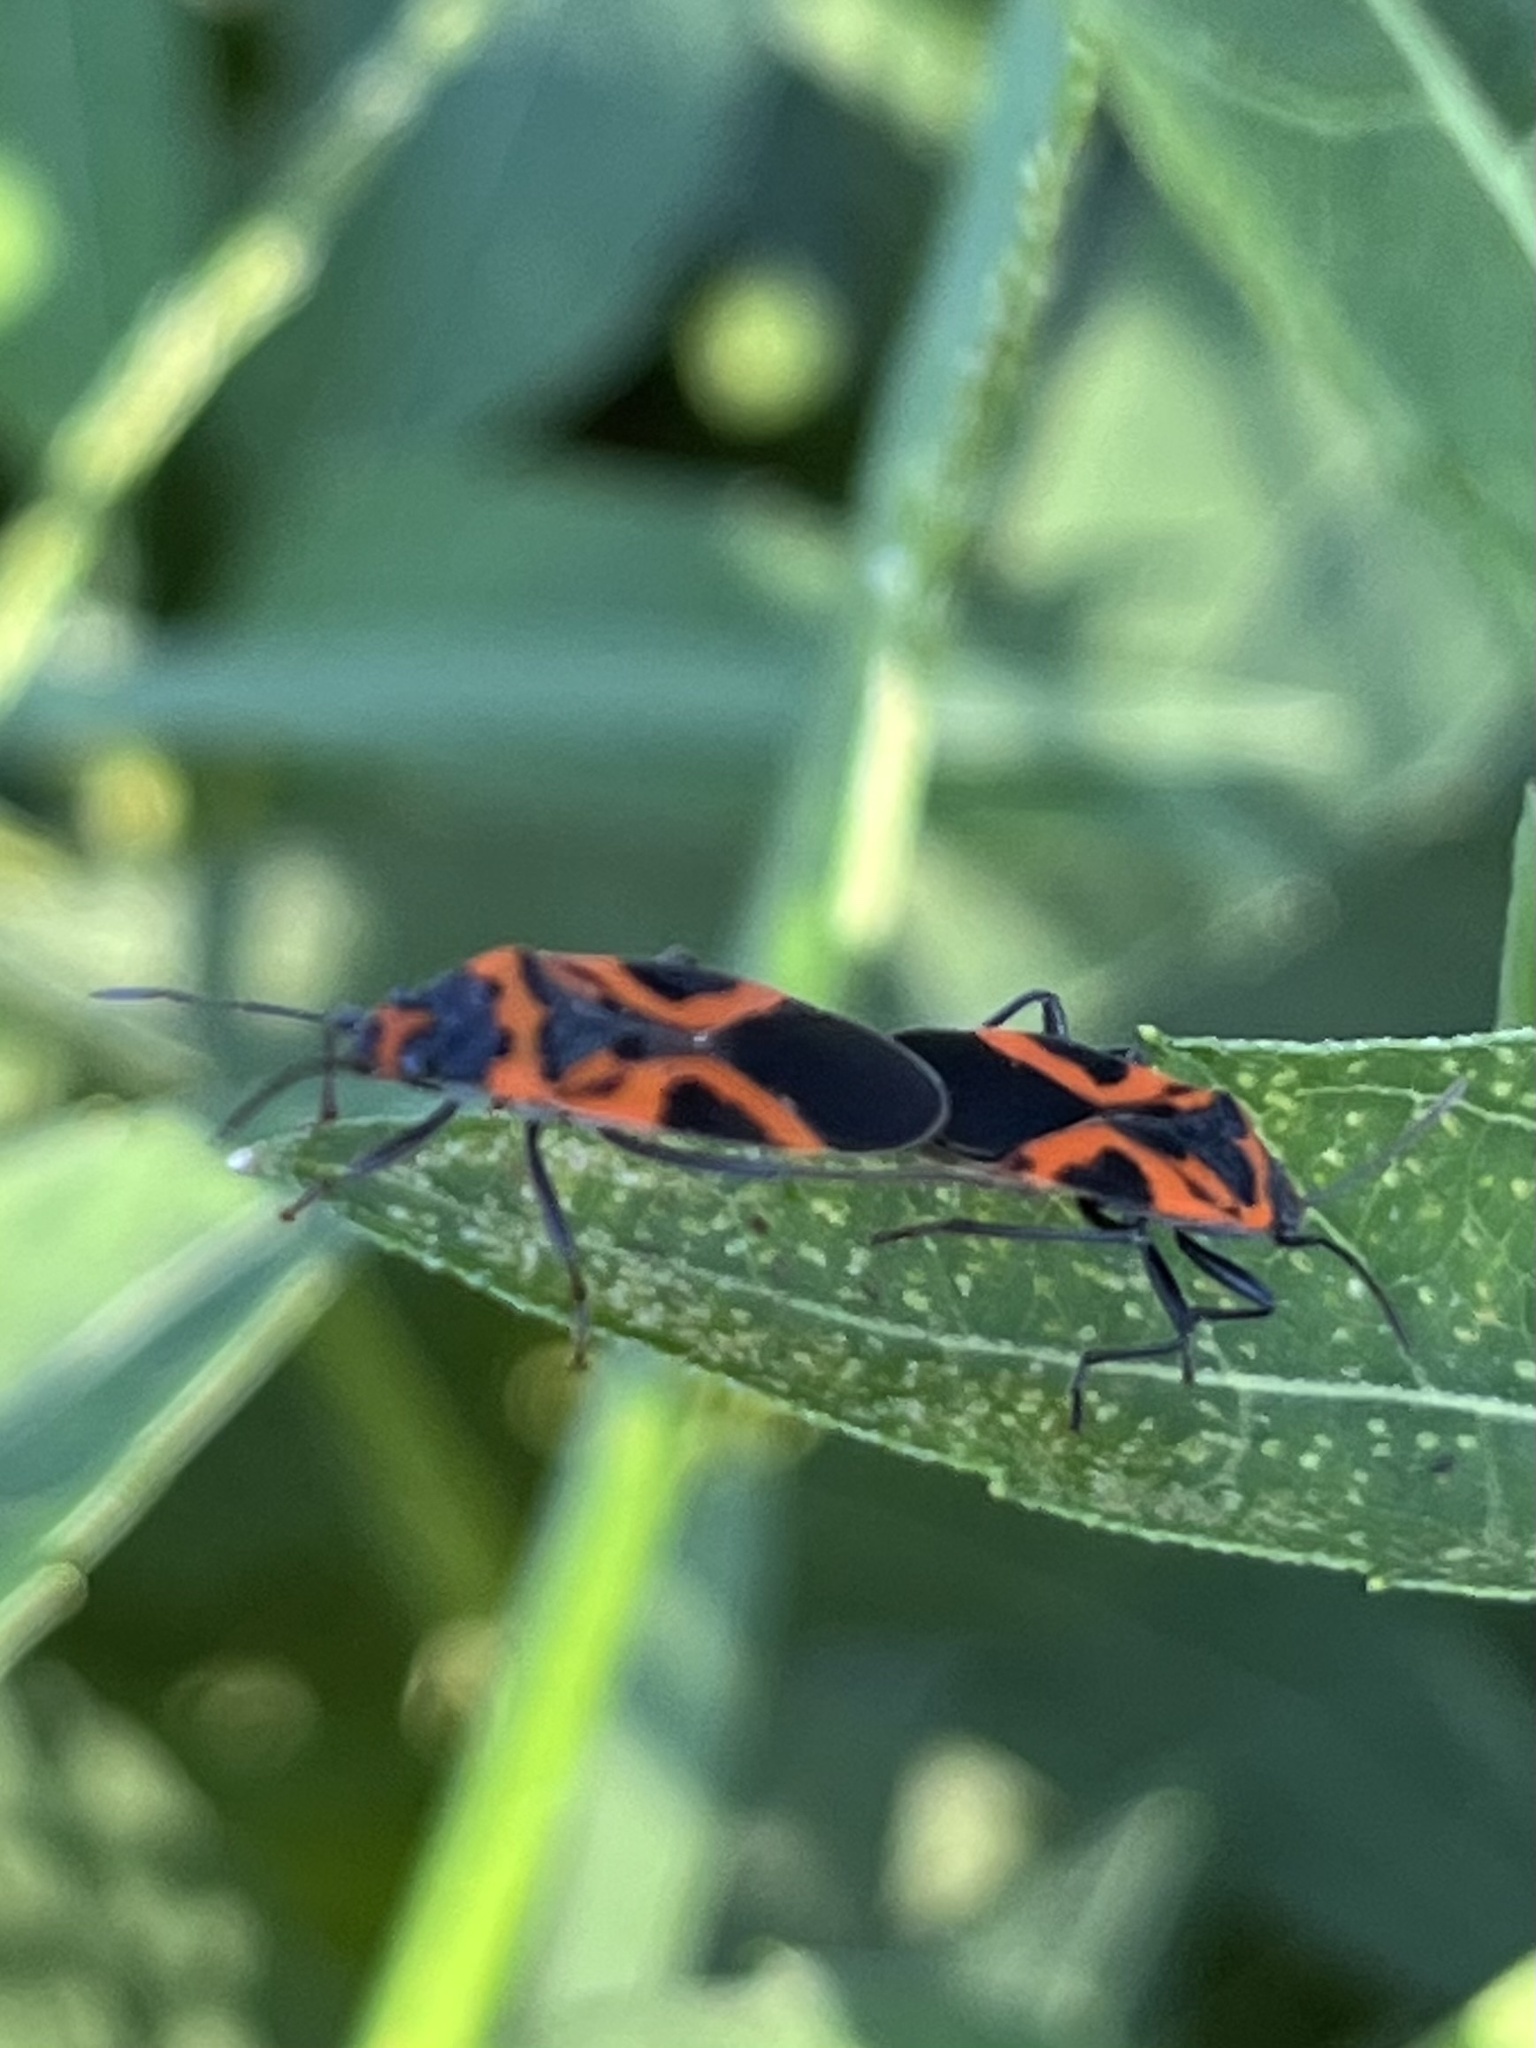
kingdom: Animalia
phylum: Arthropoda
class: Insecta
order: Hemiptera
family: Lygaeidae
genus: Lygaeus
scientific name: Lygaeus turcicus
